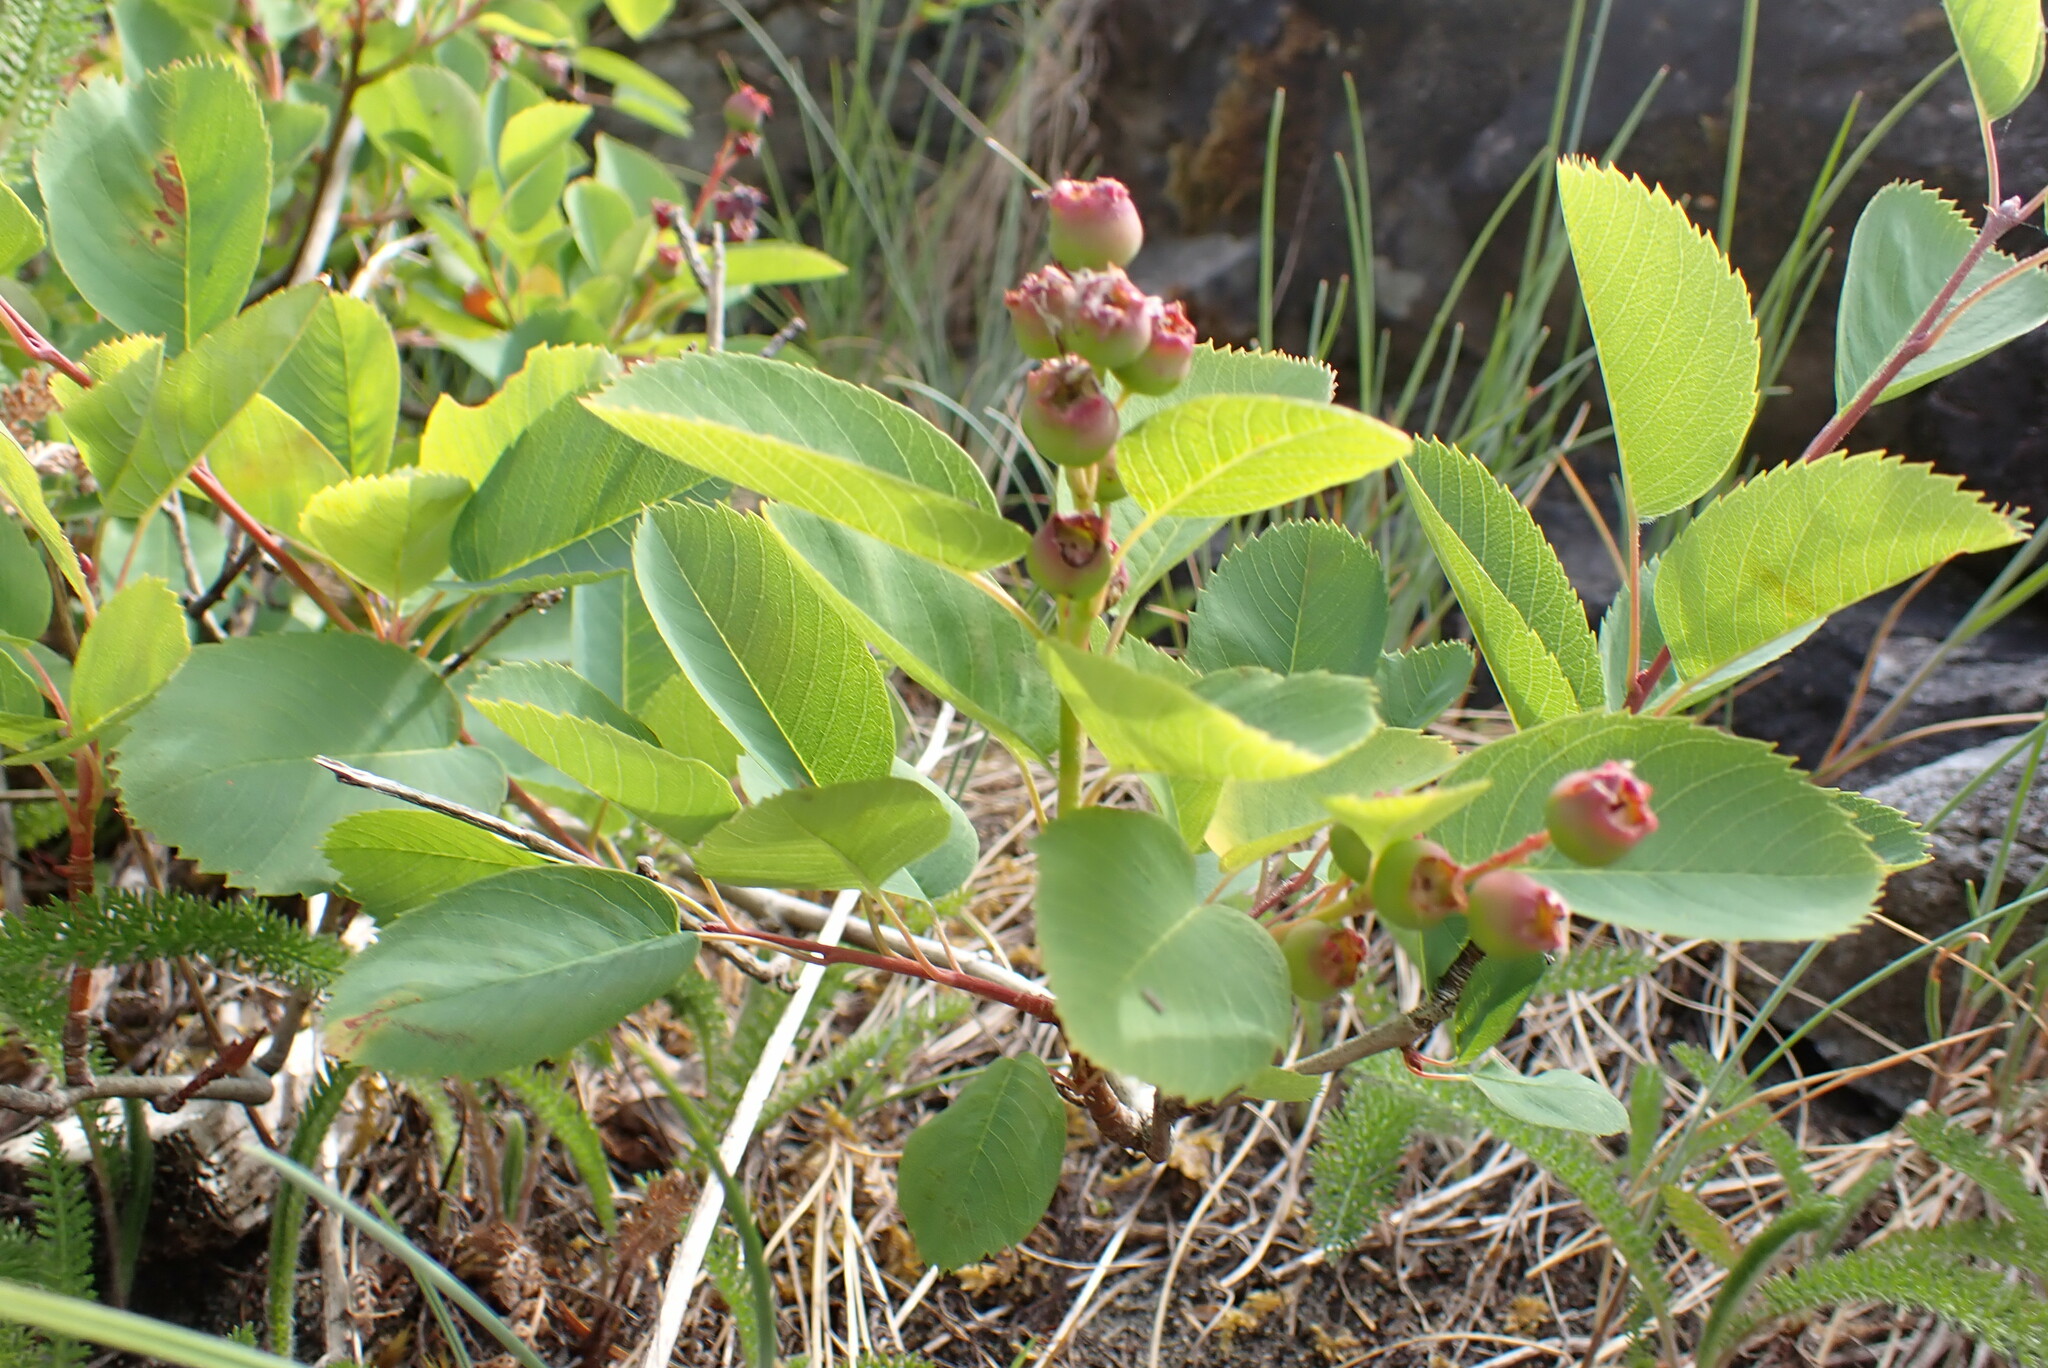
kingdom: Plantae
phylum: Tracheophyta
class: Magnoliopsida
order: Rosales
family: Rosaceae
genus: Amelanchier
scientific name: Amelanchier alnifolia
